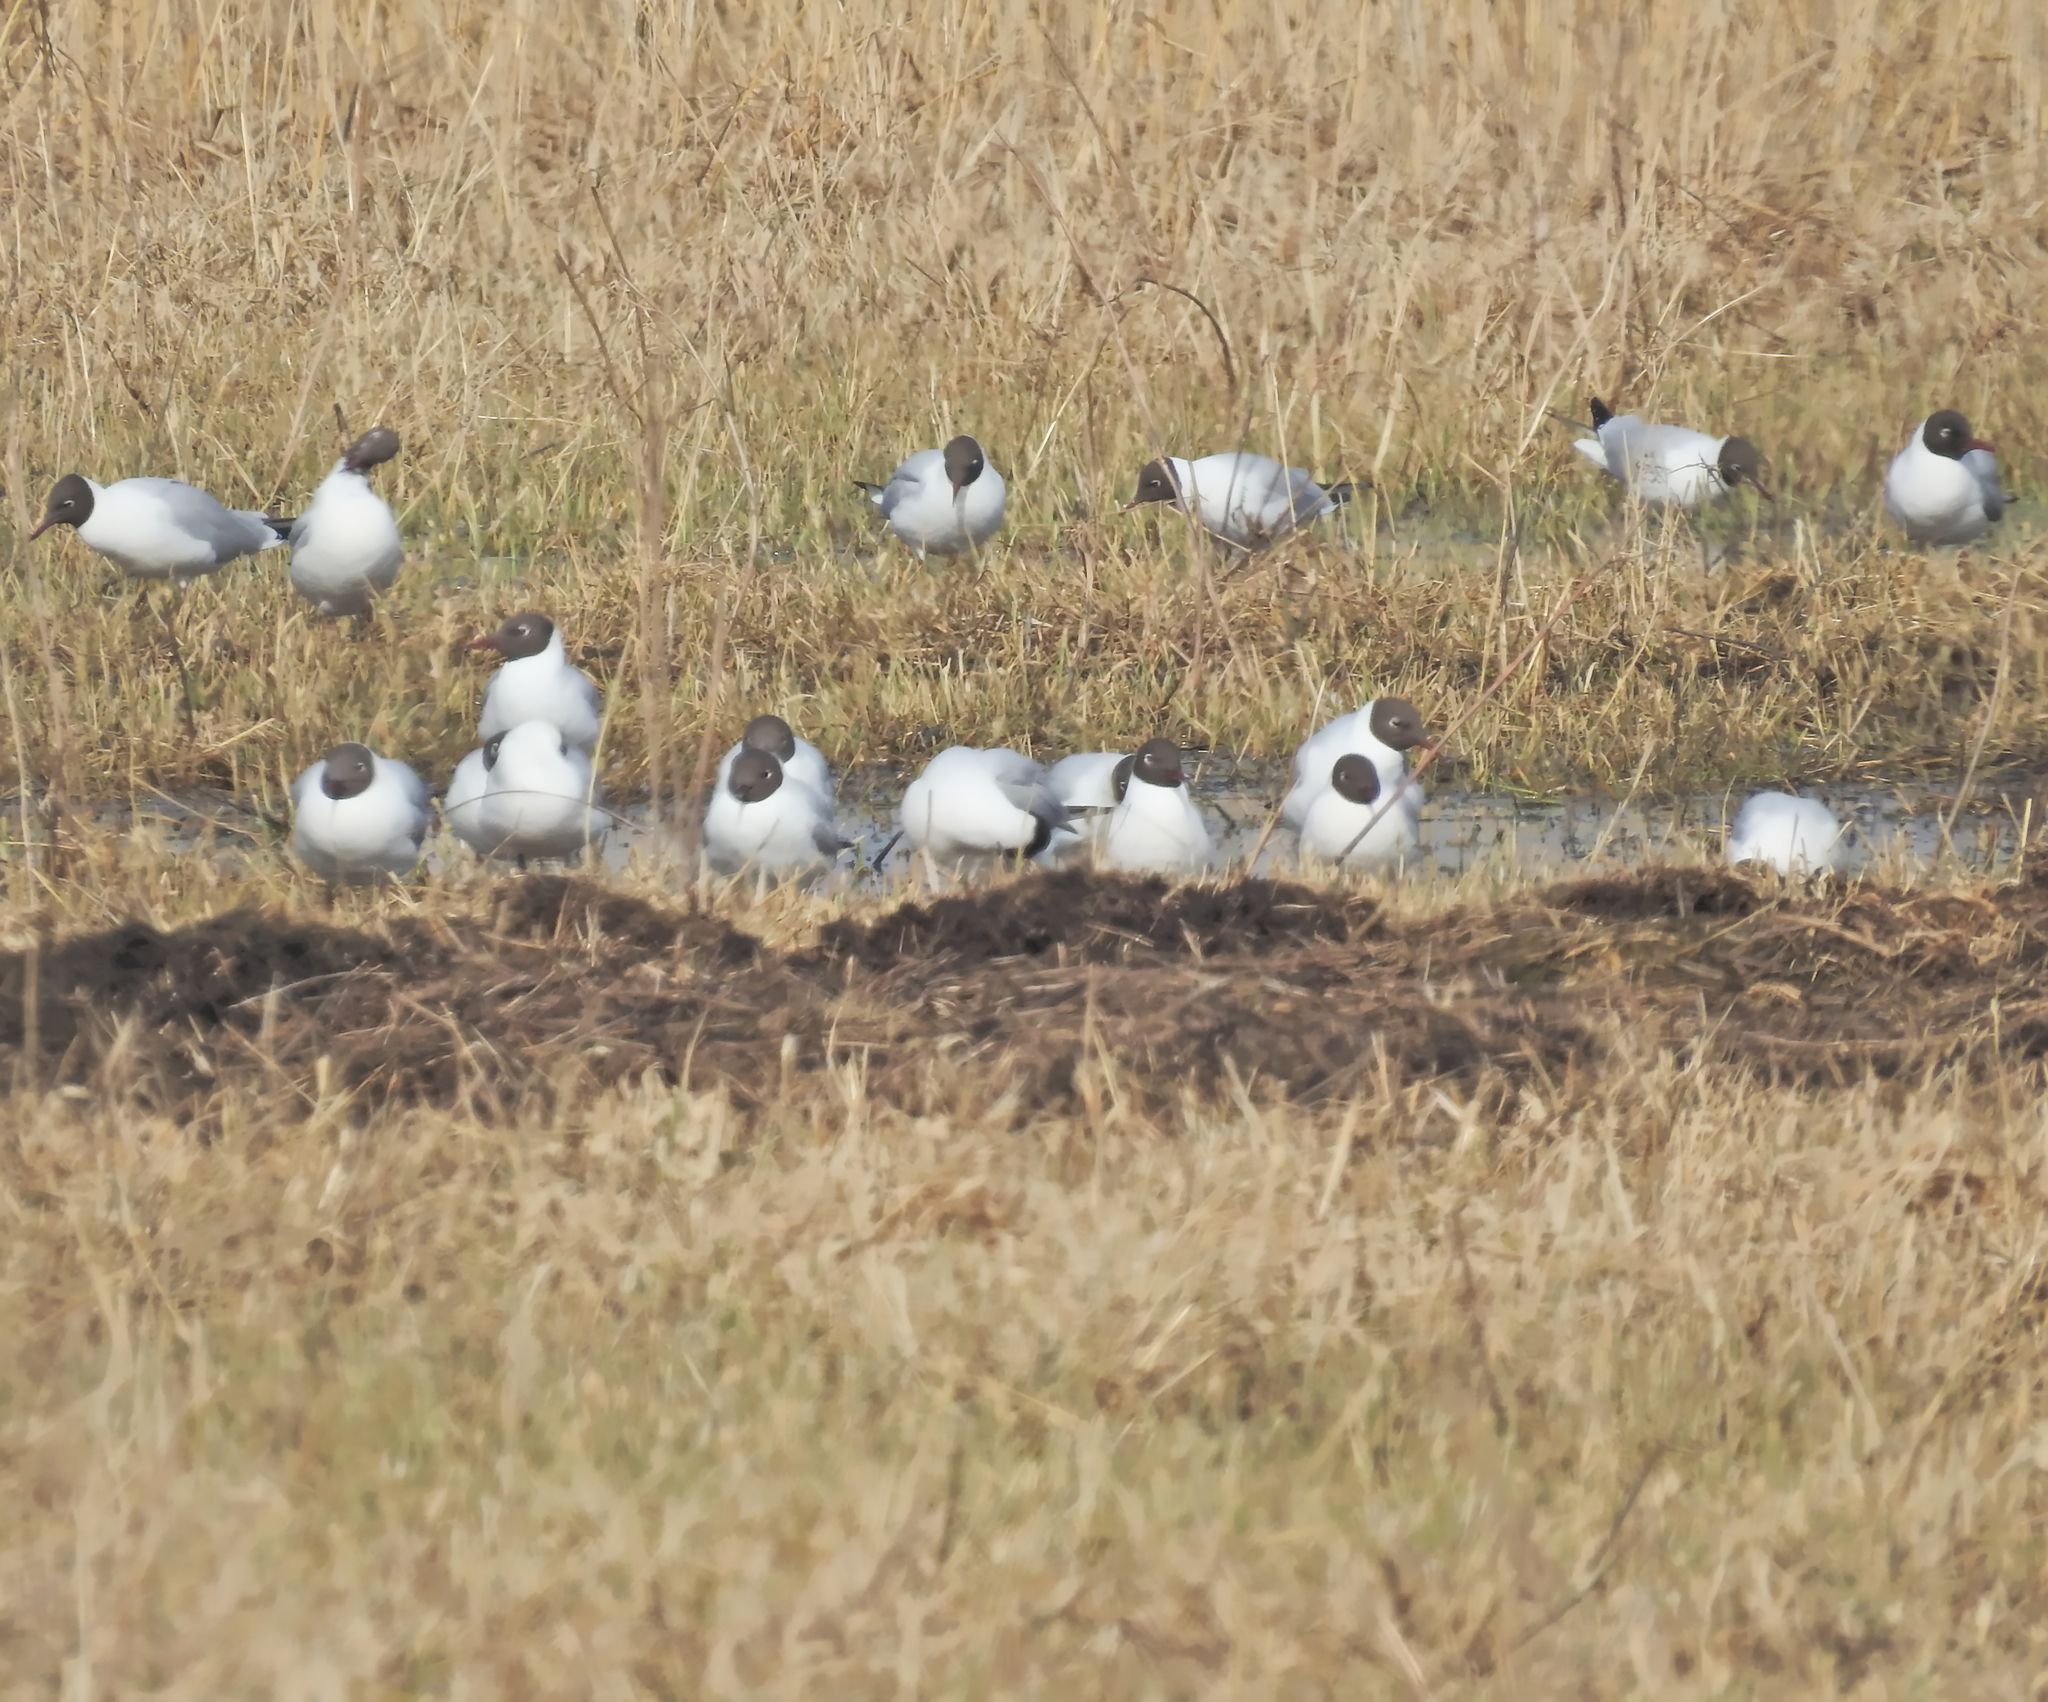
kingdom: Animalia
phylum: Chordata
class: Aves
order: Charadriiformes
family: Laridae
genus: Chroicocephalus
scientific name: Chroicocephalus ridibundus
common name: Black-headed gull
